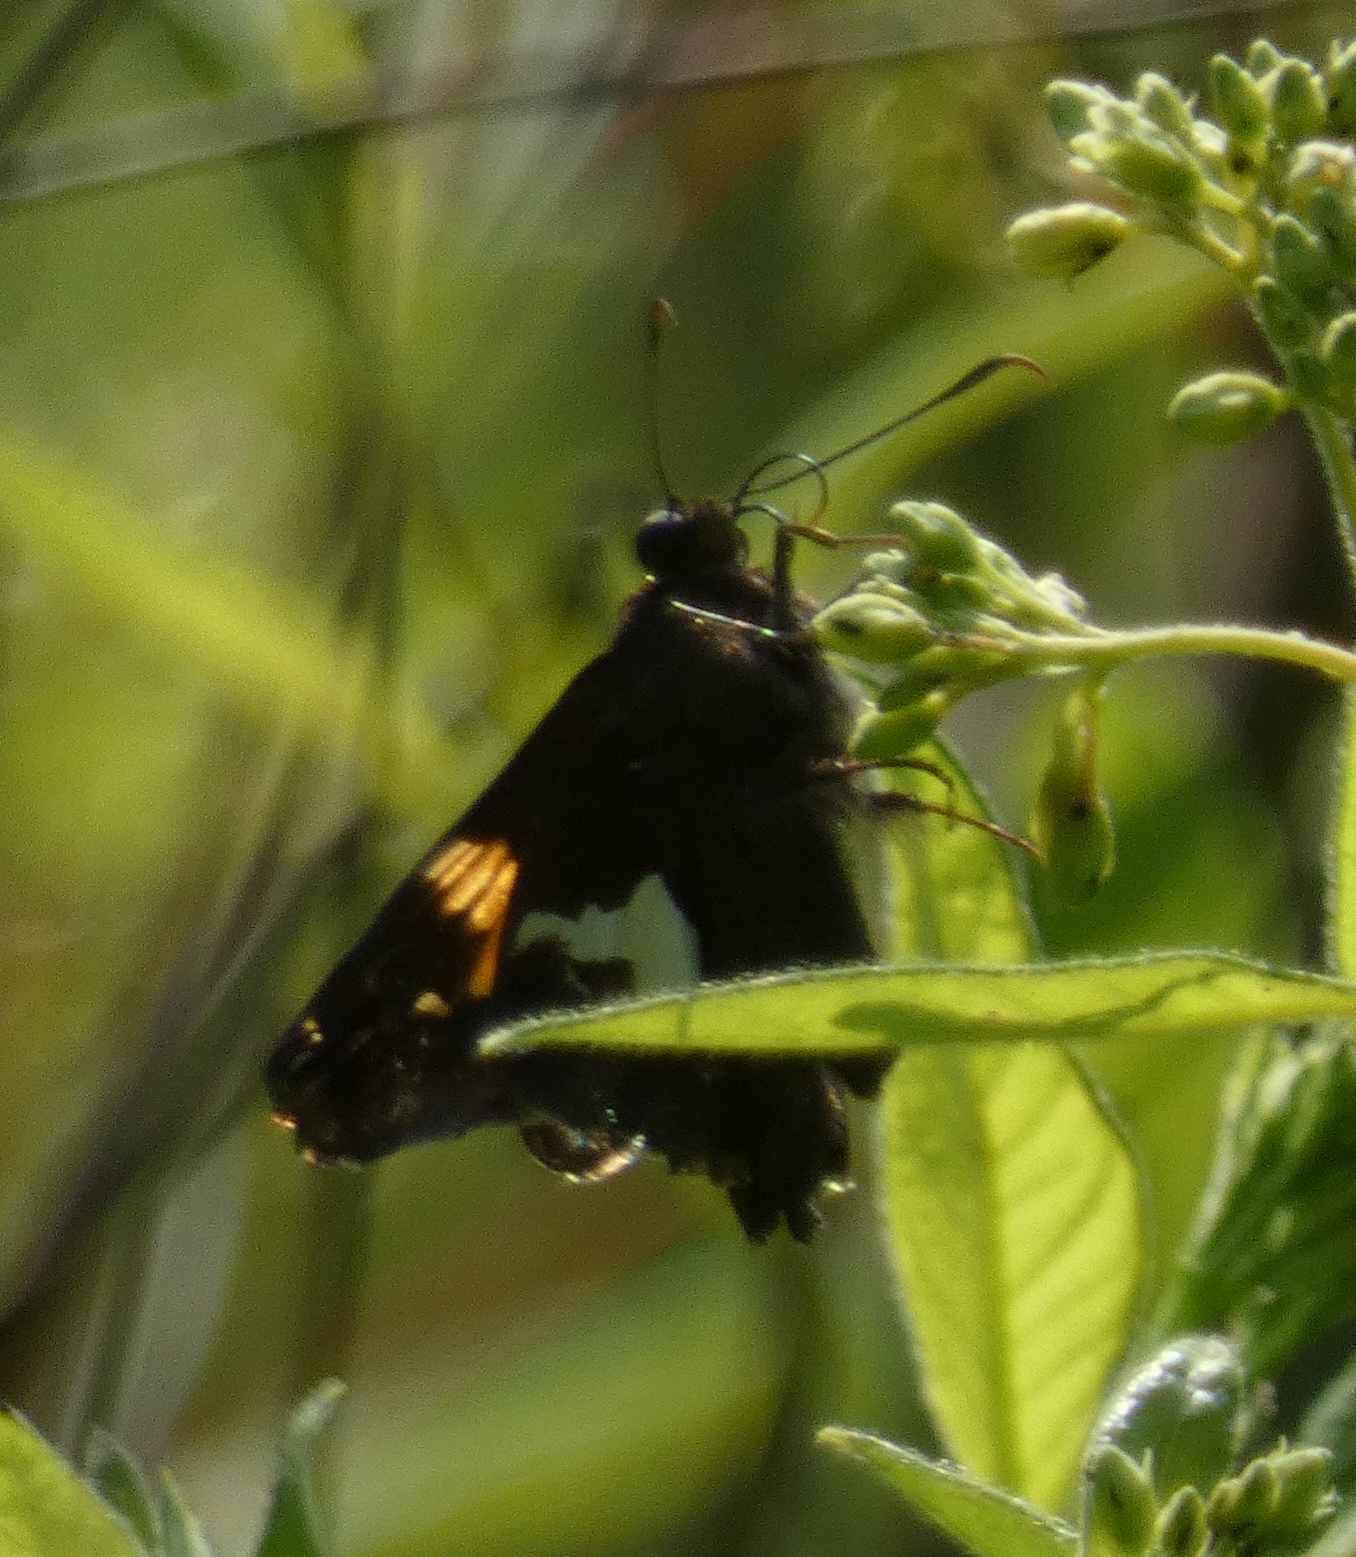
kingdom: Animalia
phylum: Arthropoda
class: Insecta
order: Lepidoptera
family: Hesperiidae
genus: Epargyreus
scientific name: Epargyreus clarus
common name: Silver-spotted skipper
